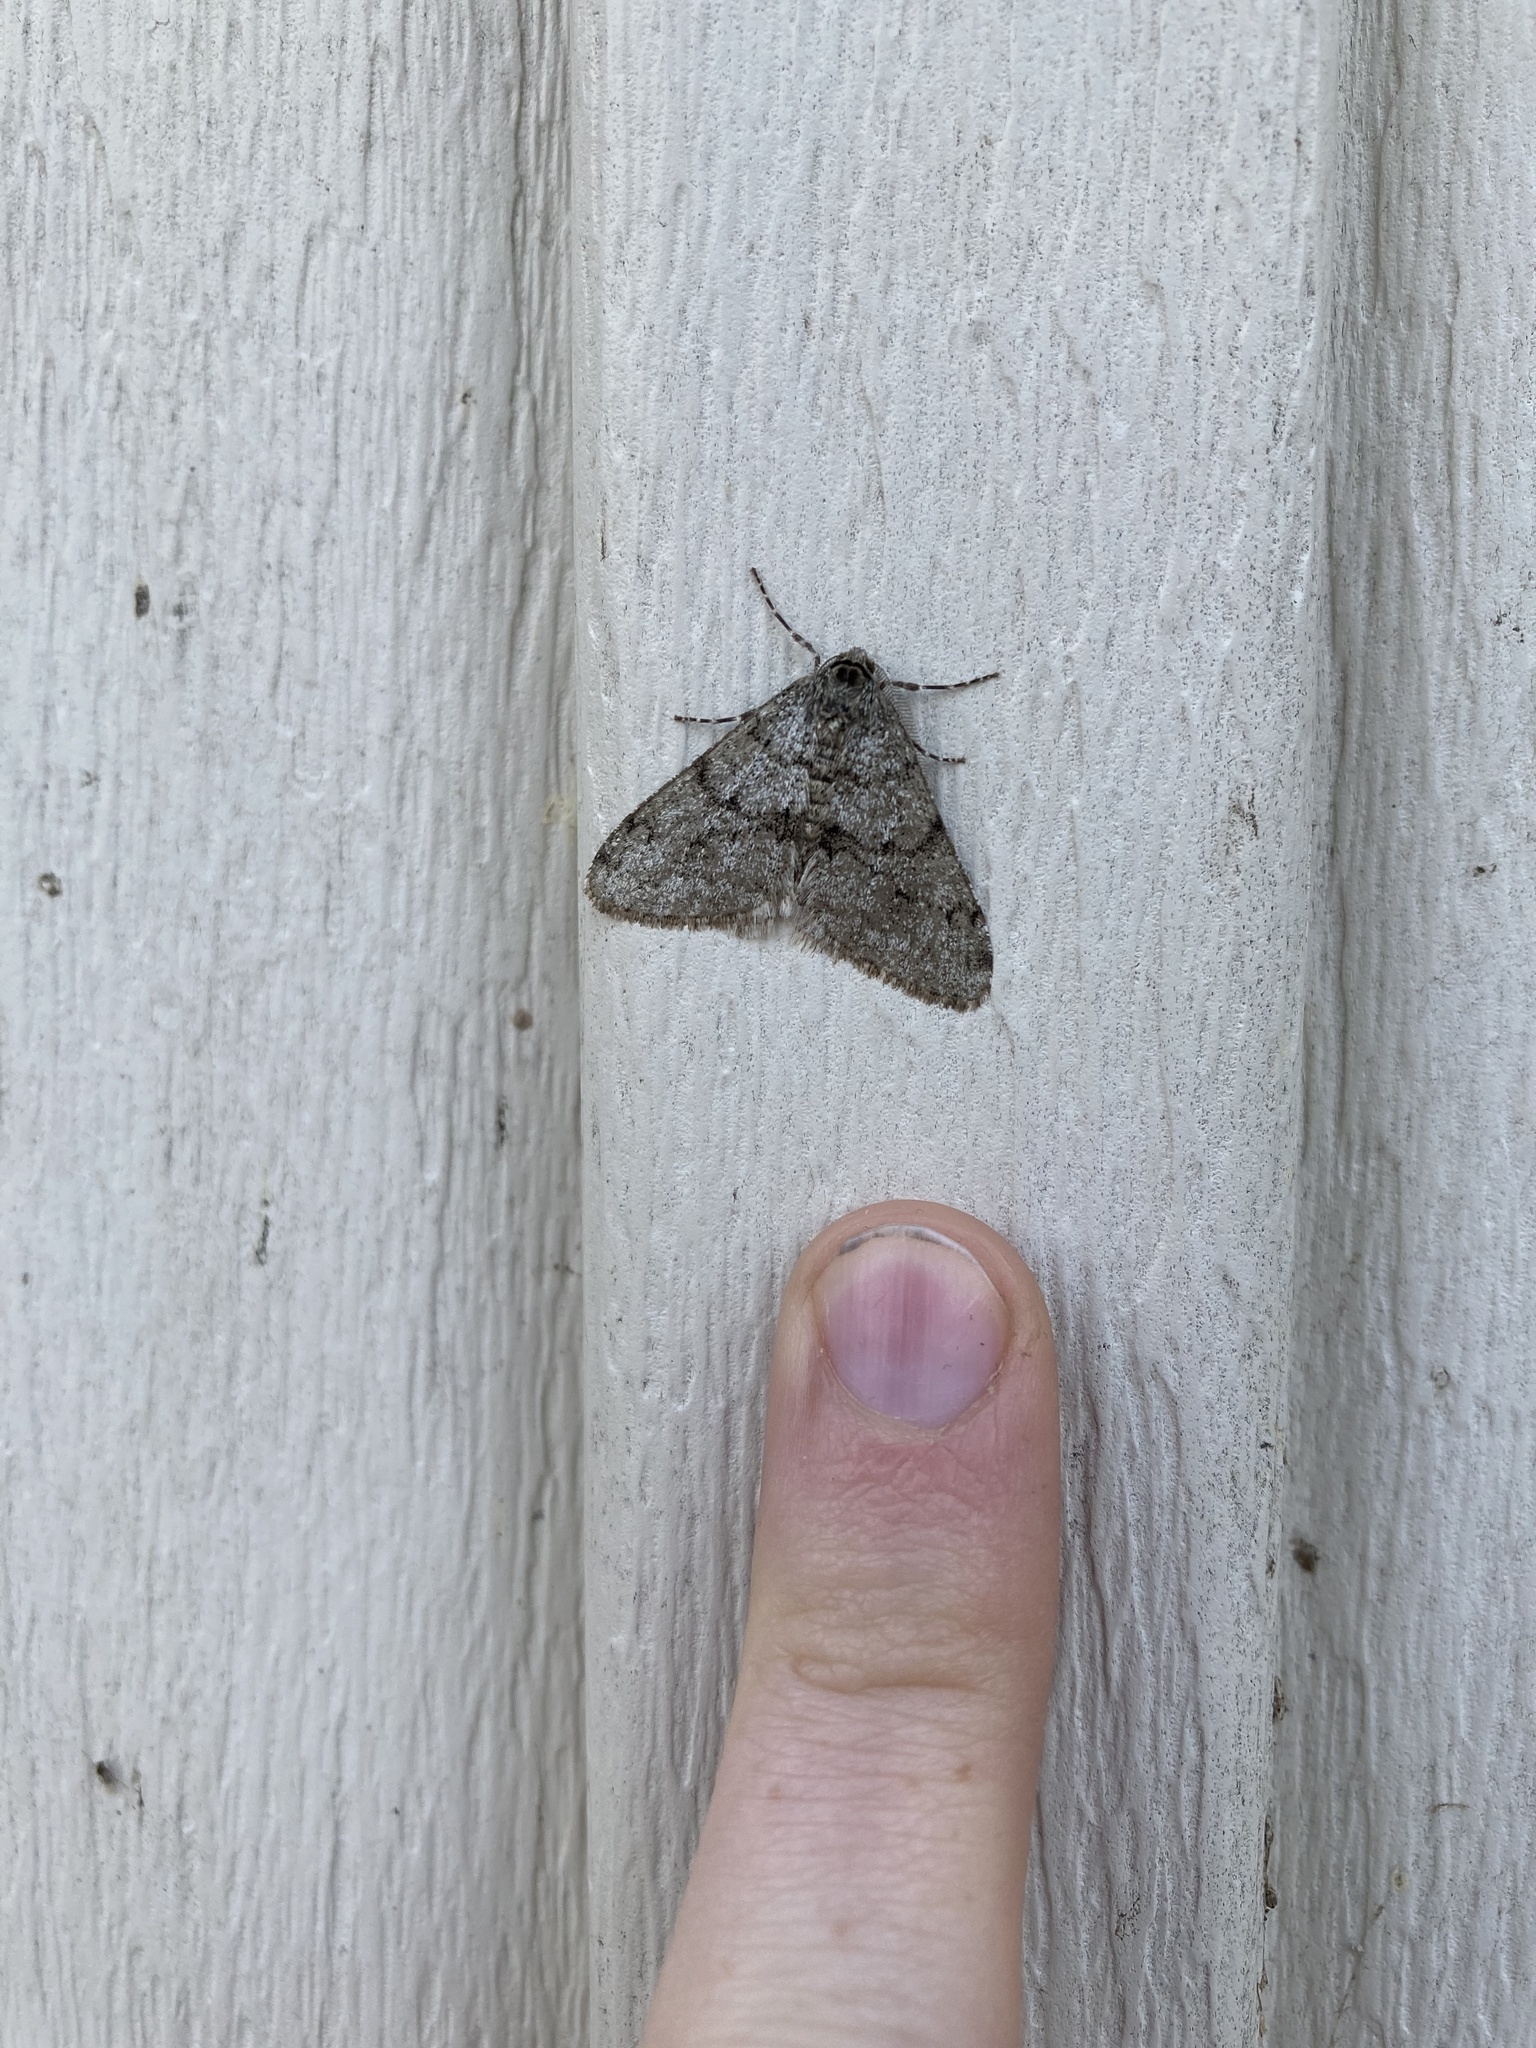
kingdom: Animalia
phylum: Arthropoda
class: Insecta
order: Lepidoptera
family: Geometridae
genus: Phigalia
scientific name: Phigalia strigataria
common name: Small phigalia
